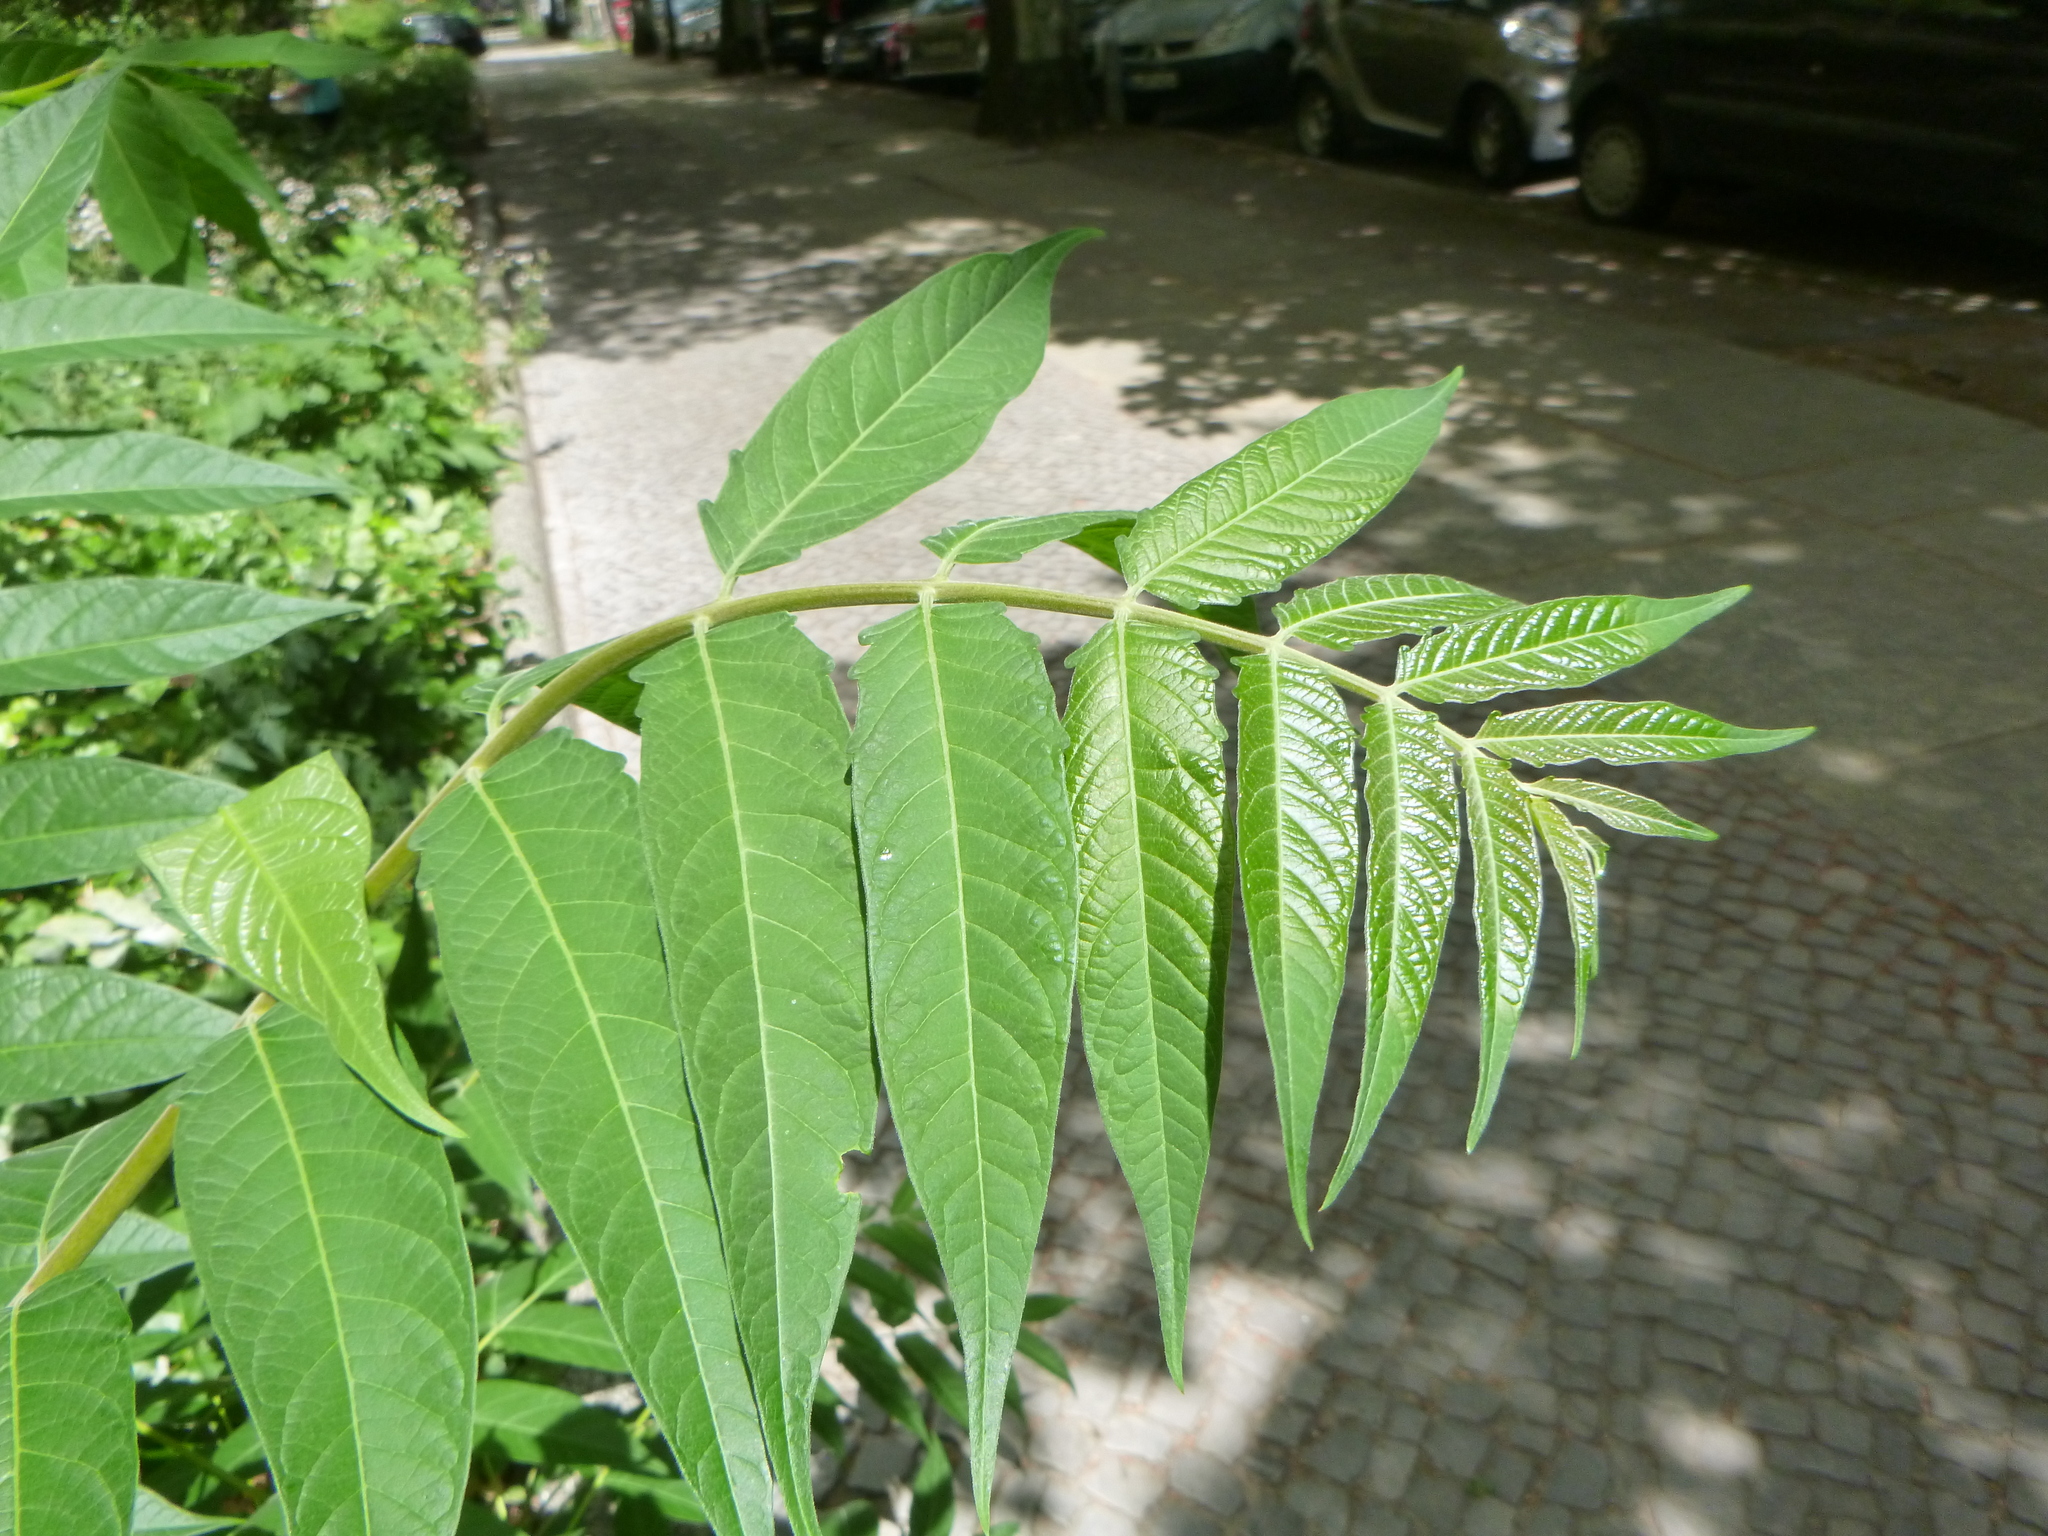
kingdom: Plantae
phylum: Tracheophyta
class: Magnoliopsida
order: Sapindales
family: Simaroubaceae
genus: Ailanthus
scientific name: Ailanthus altissima
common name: Tree-of-heaven
